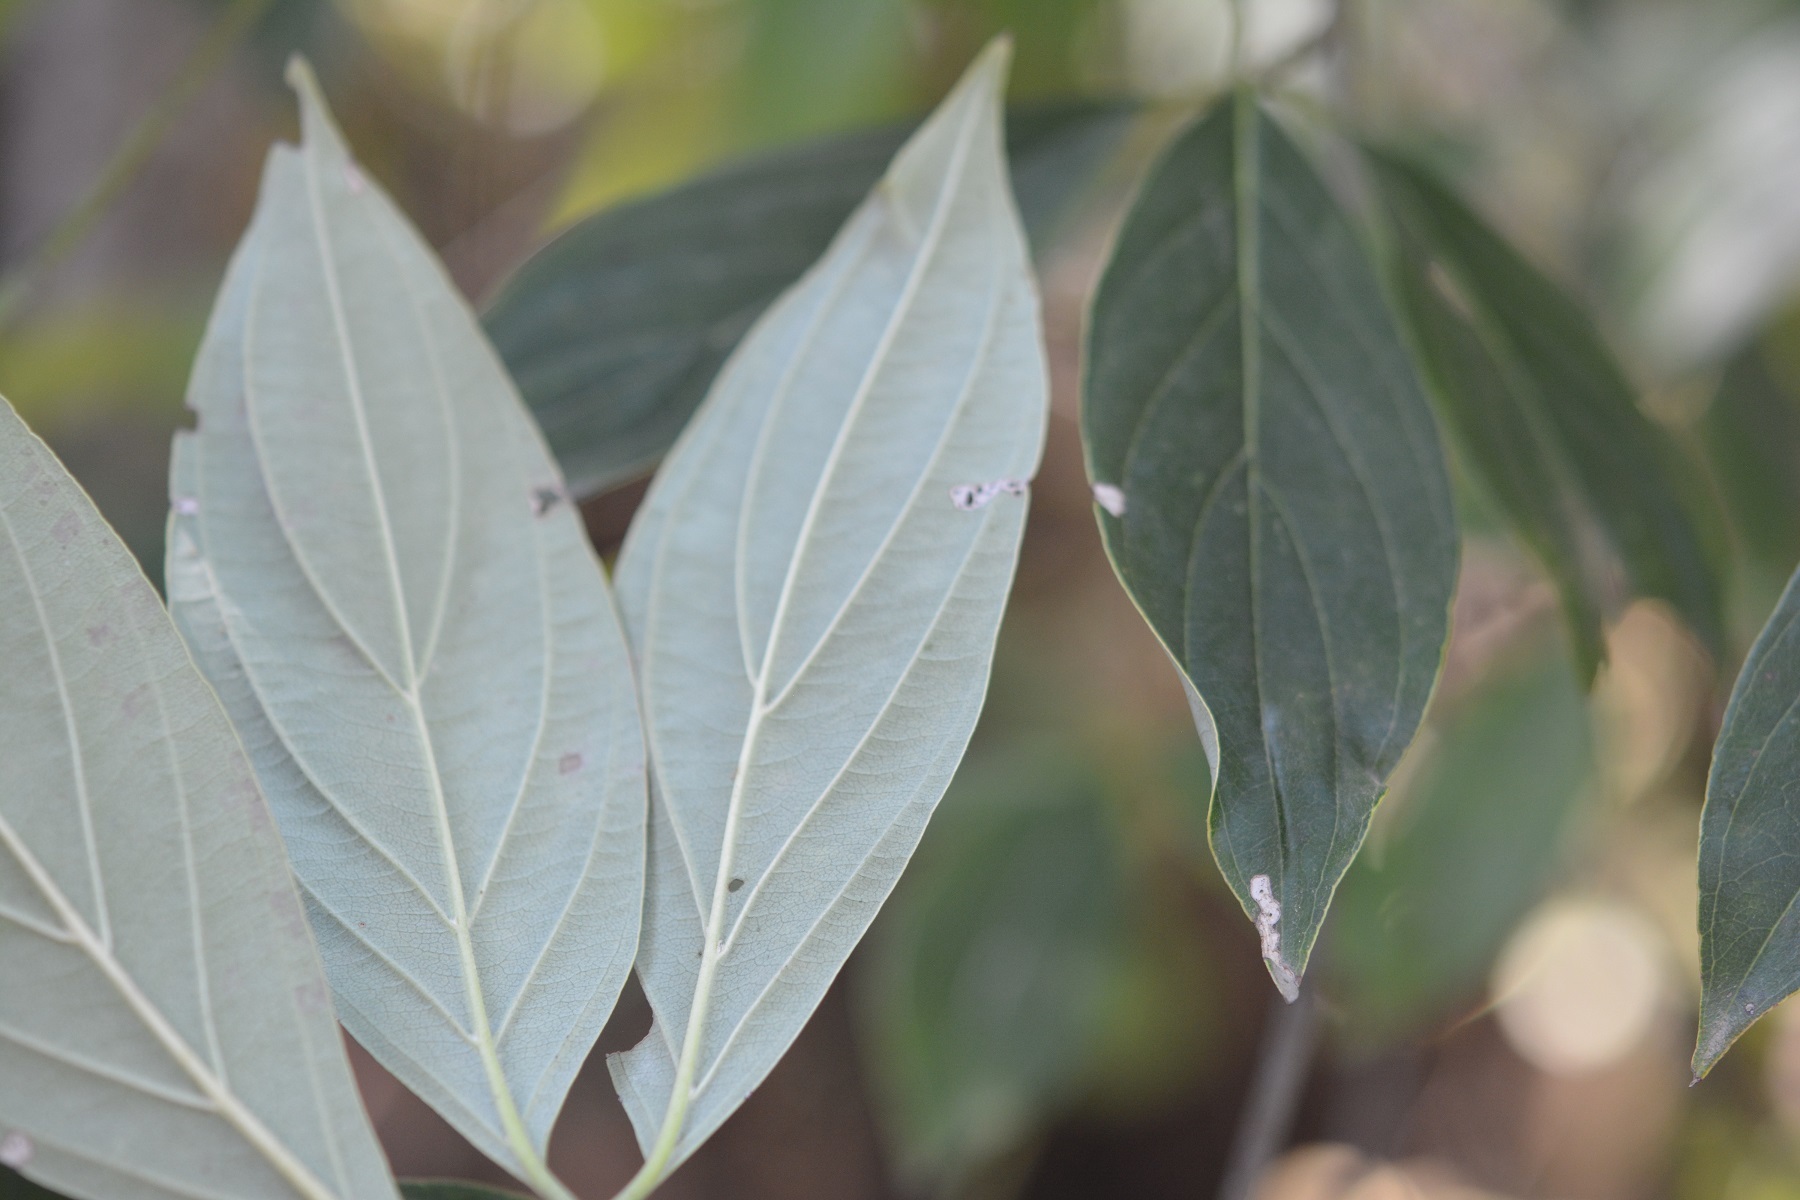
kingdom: Plantae
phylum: Tracheophyta
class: Magnoliopsida
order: Cornales
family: Cornaceae
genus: Cornus
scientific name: Cornus disciflora
